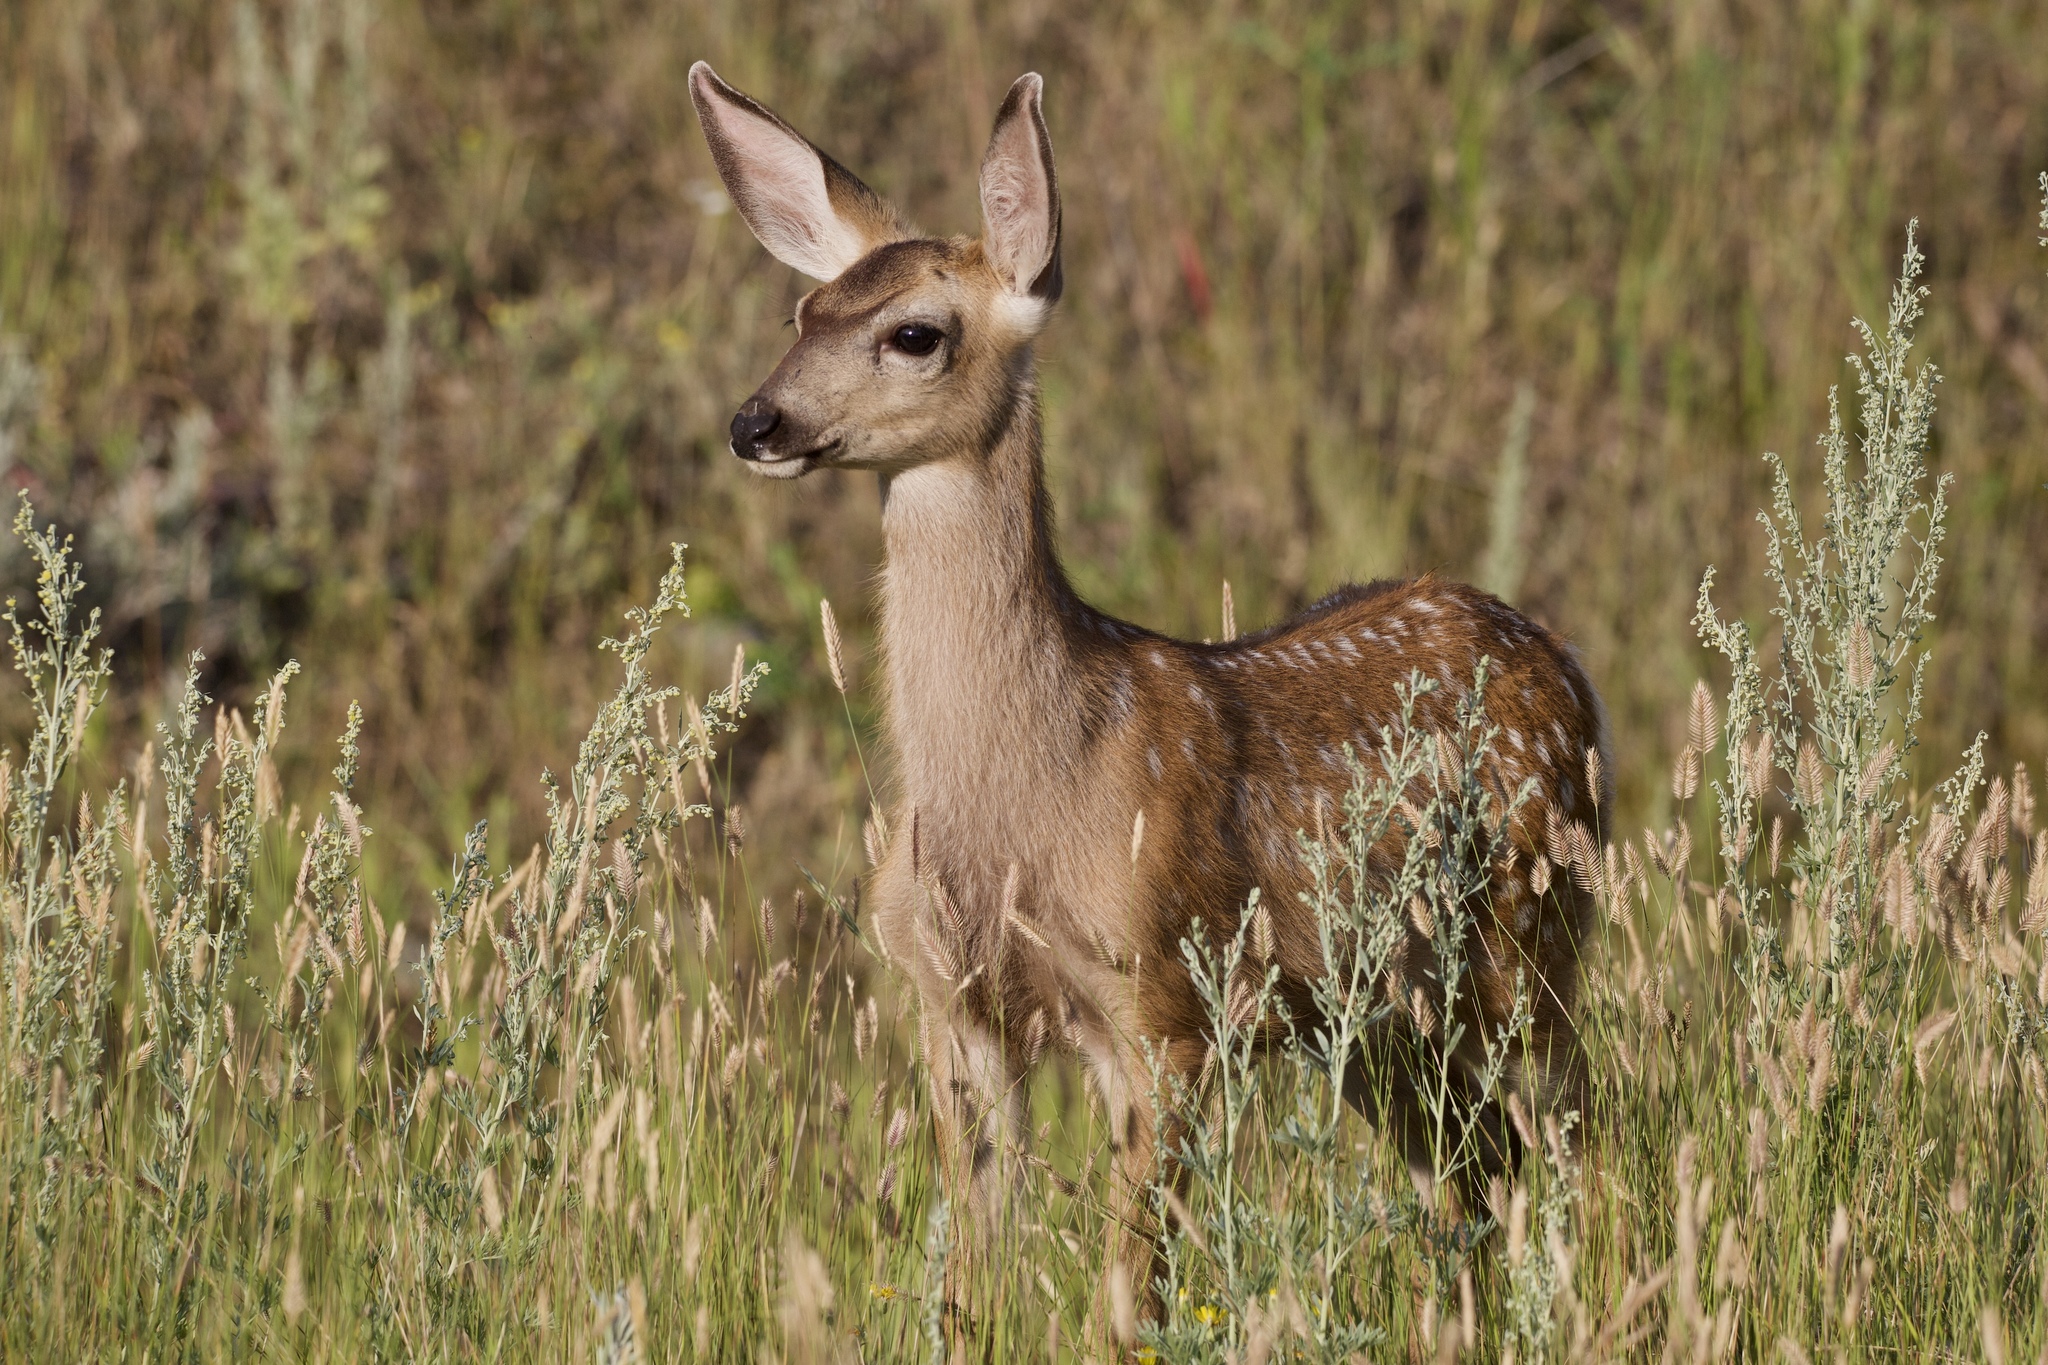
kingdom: Animalia
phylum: Chordata
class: Mammalia
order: Artiodactyla
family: Cervidae
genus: Odocoileus
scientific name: Odocoileus hemionus
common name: Mule deer
